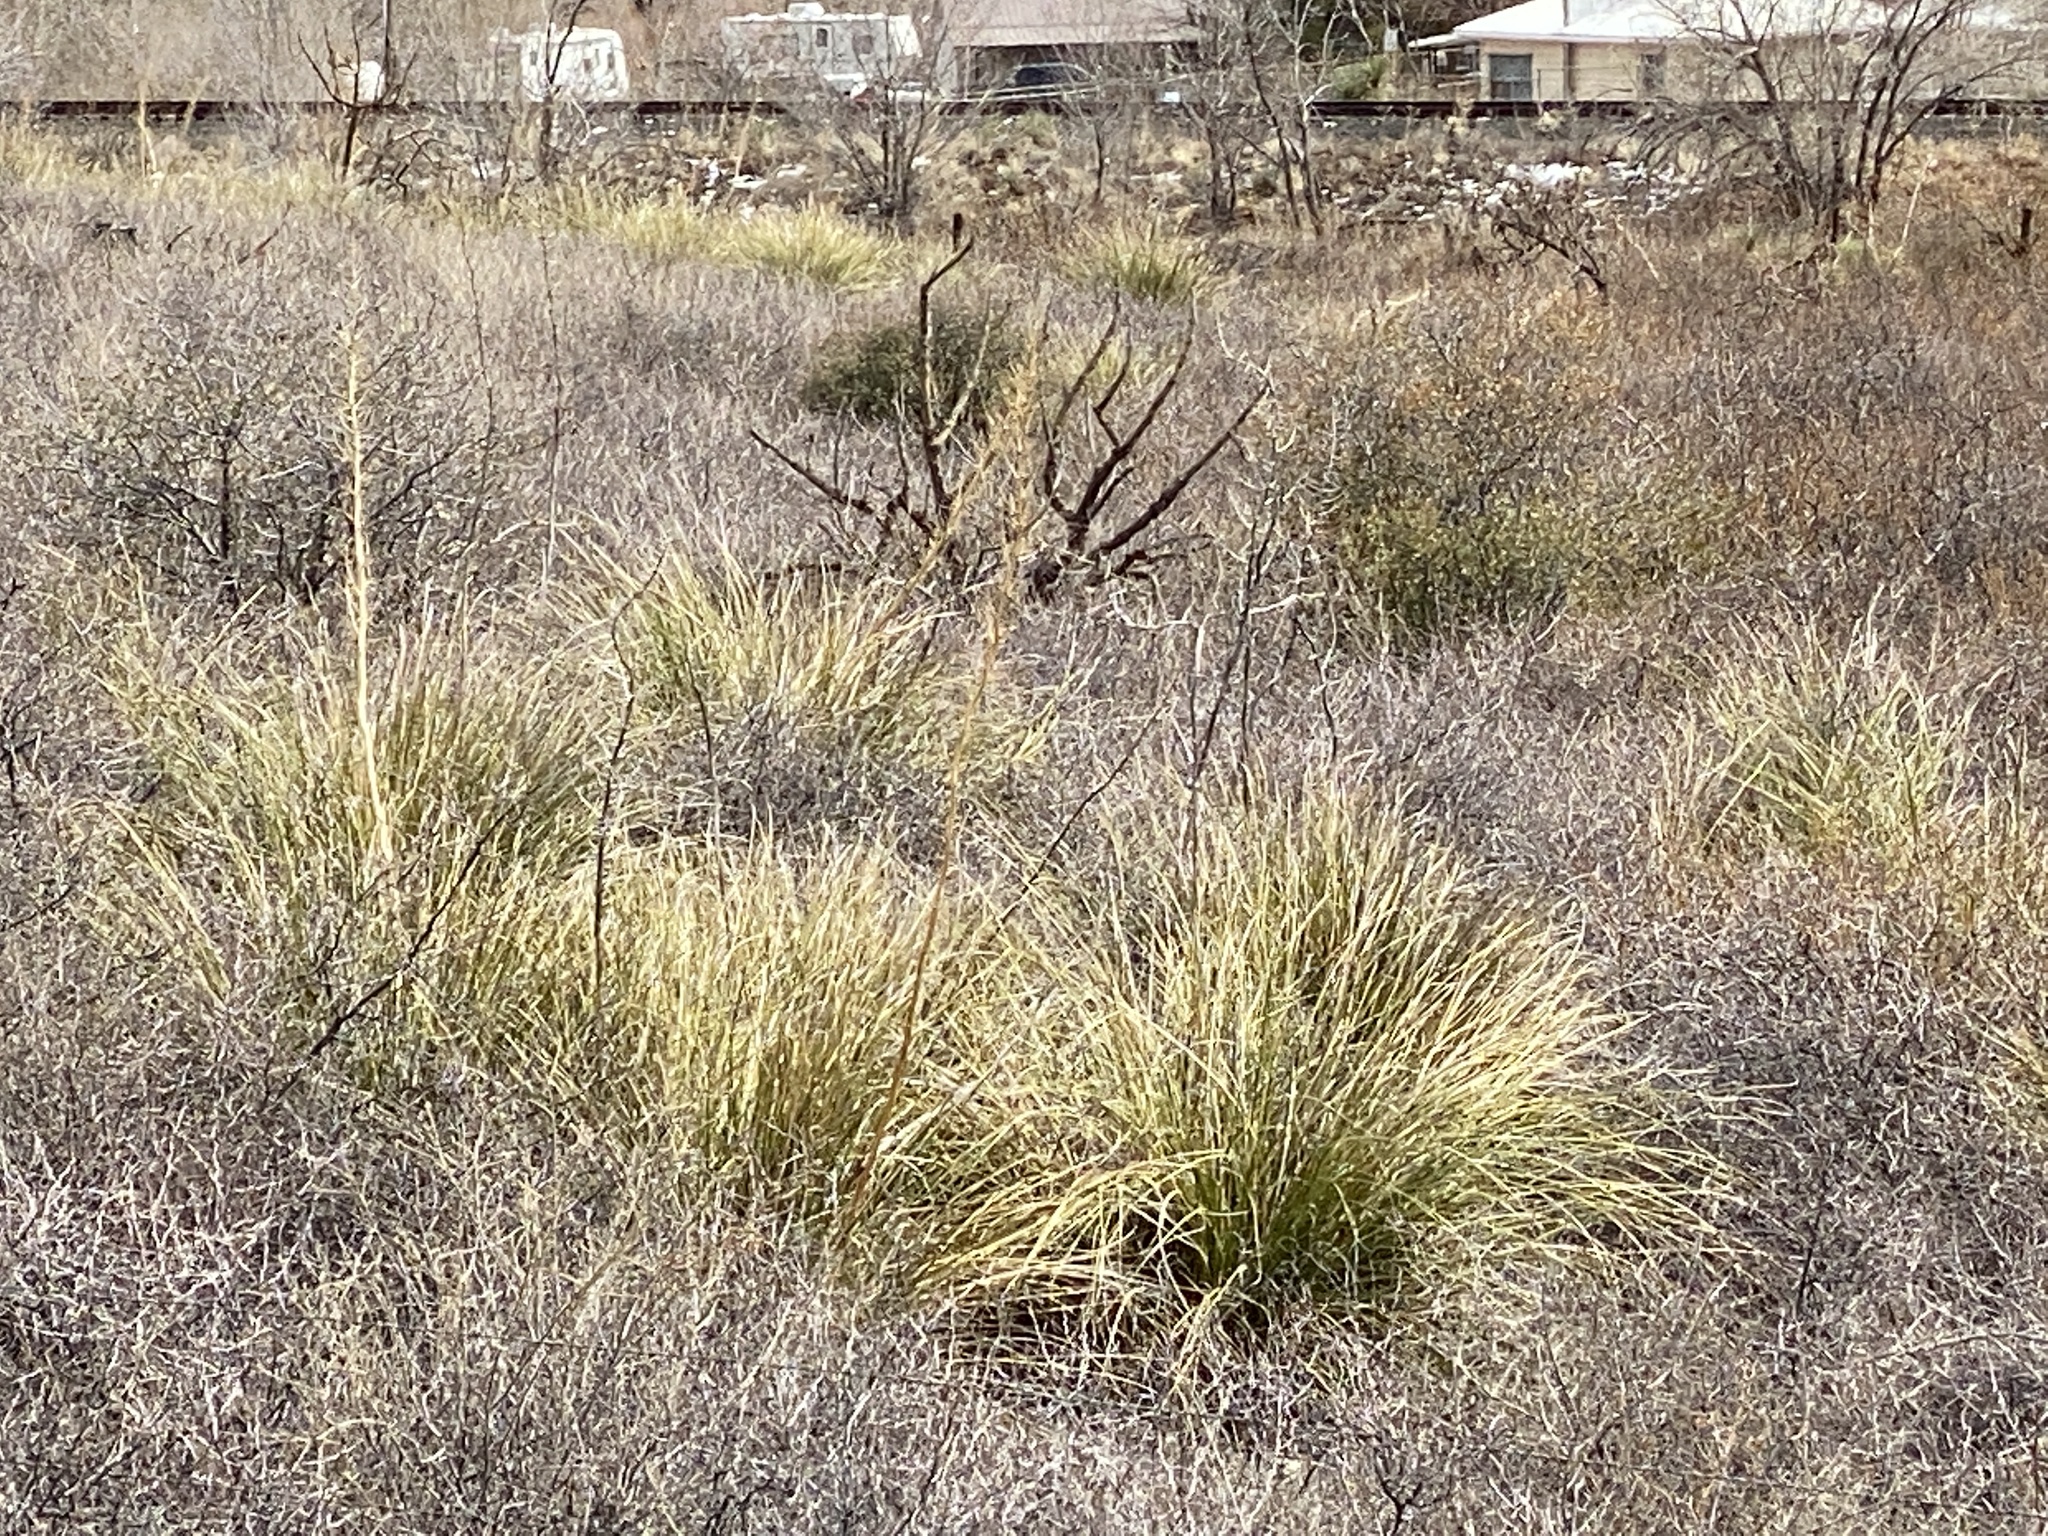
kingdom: Plantae
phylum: Tracheophyta
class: Liliopsida
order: Asparagales
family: Asparagaceae
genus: Nolina
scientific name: Nolina microcarpa
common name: Bear-grass
